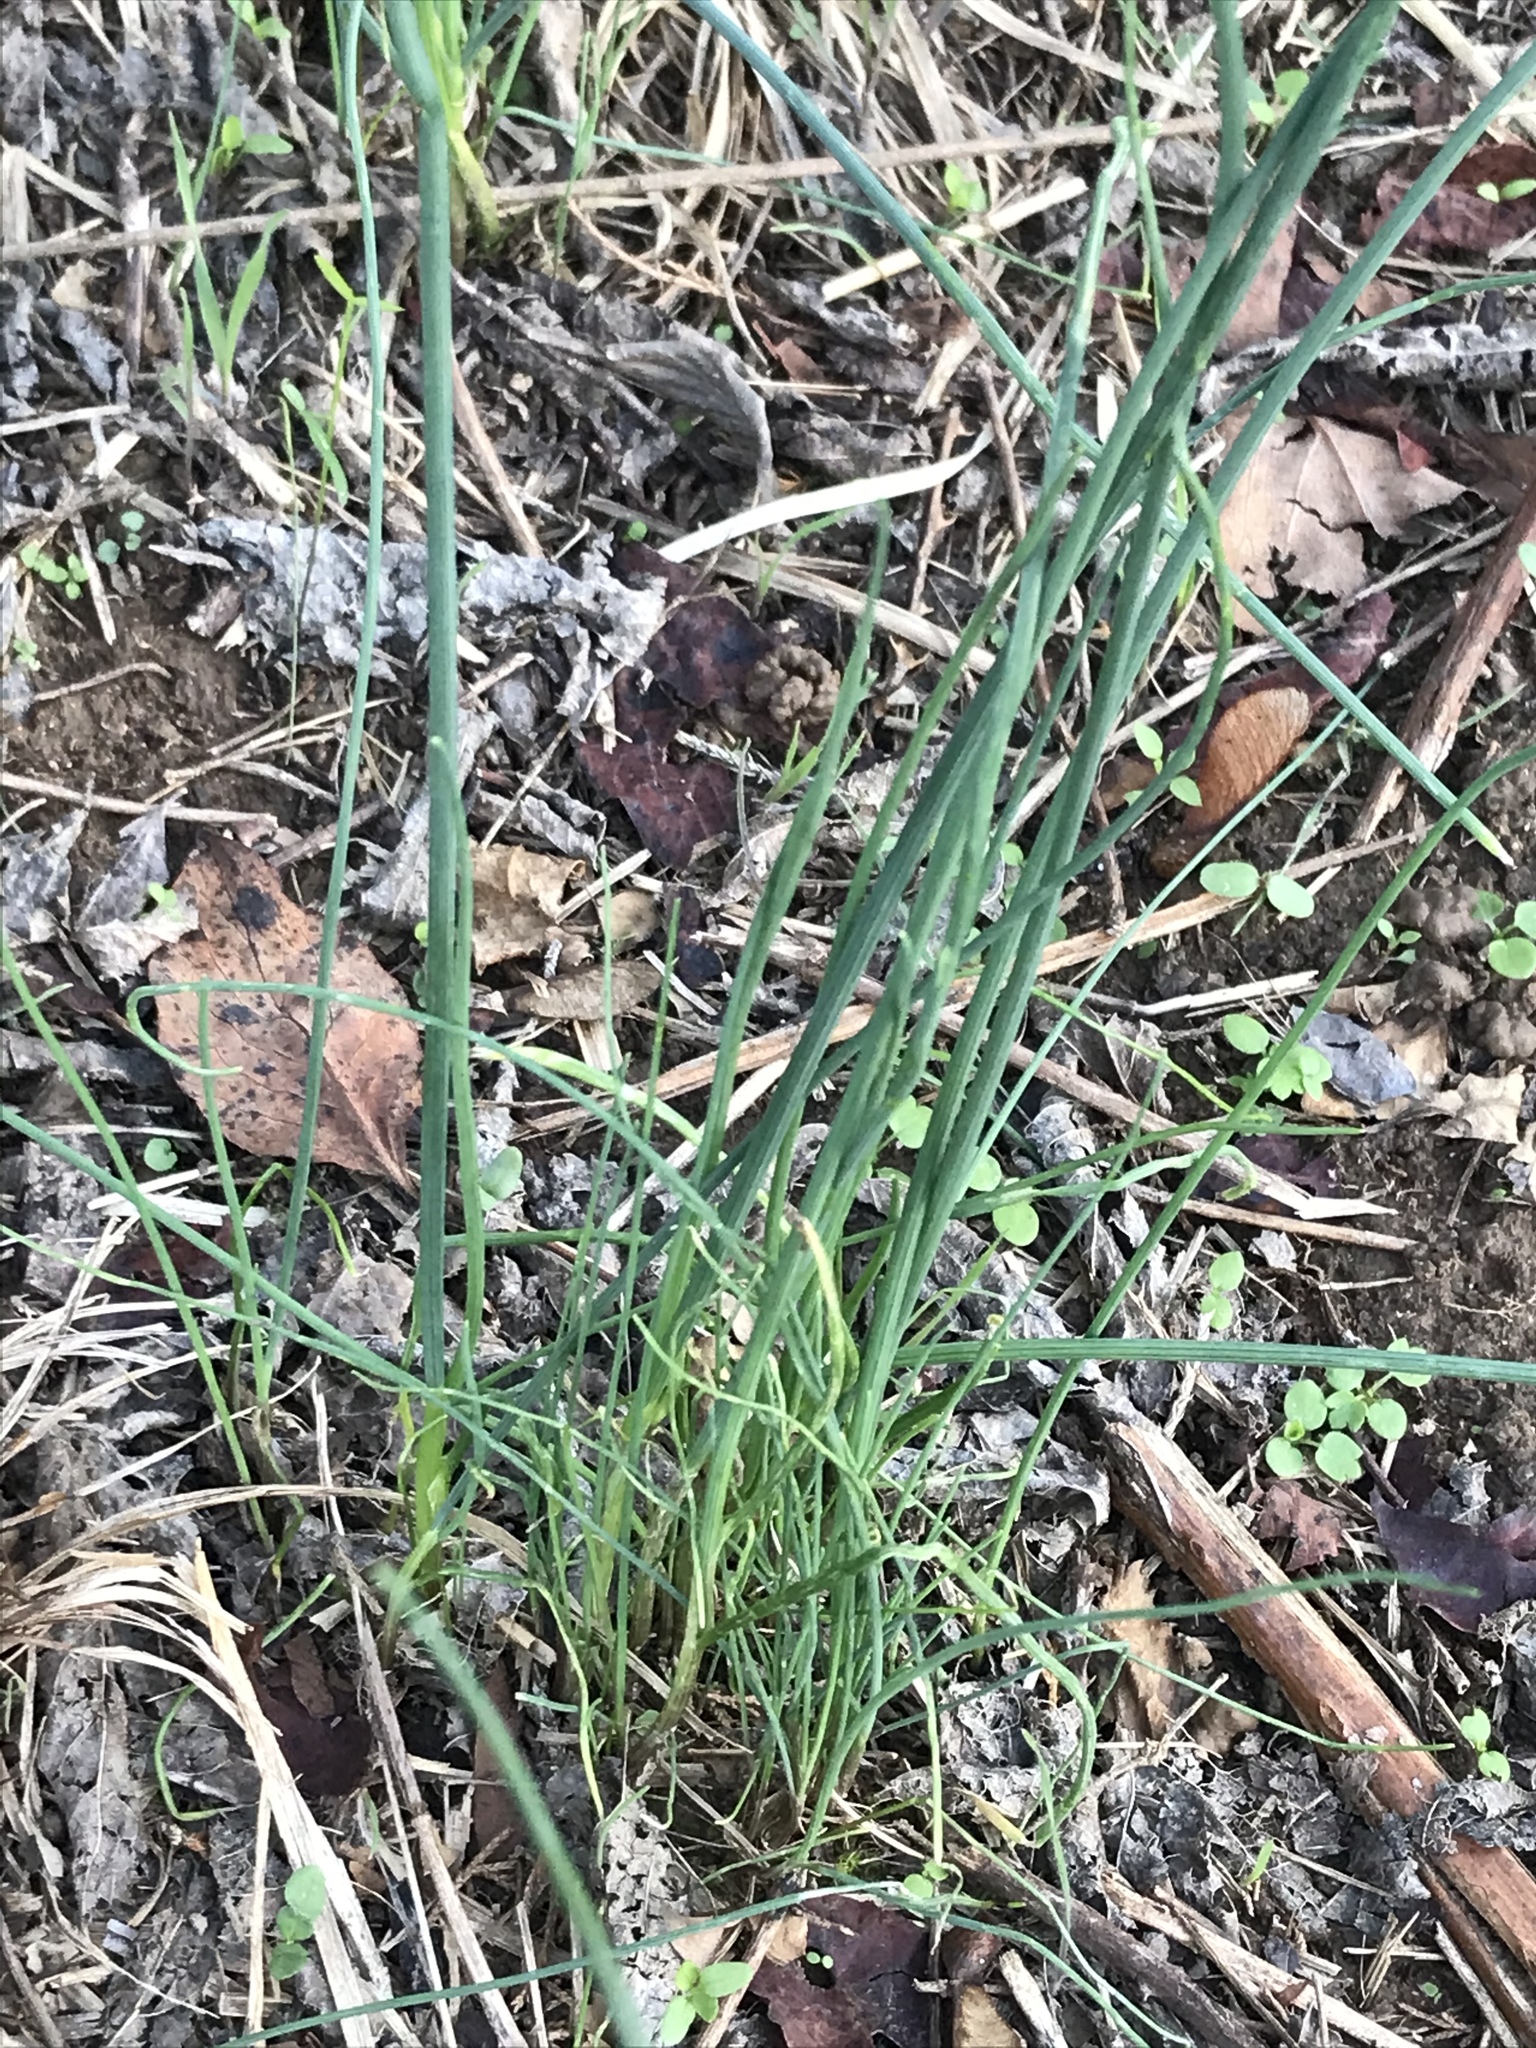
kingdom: Plantae
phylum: Tracheophyta
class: Liliopsida
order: Asparagales
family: Amaryllidaceae
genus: Allium
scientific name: Allium vineale
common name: Crow garlic
